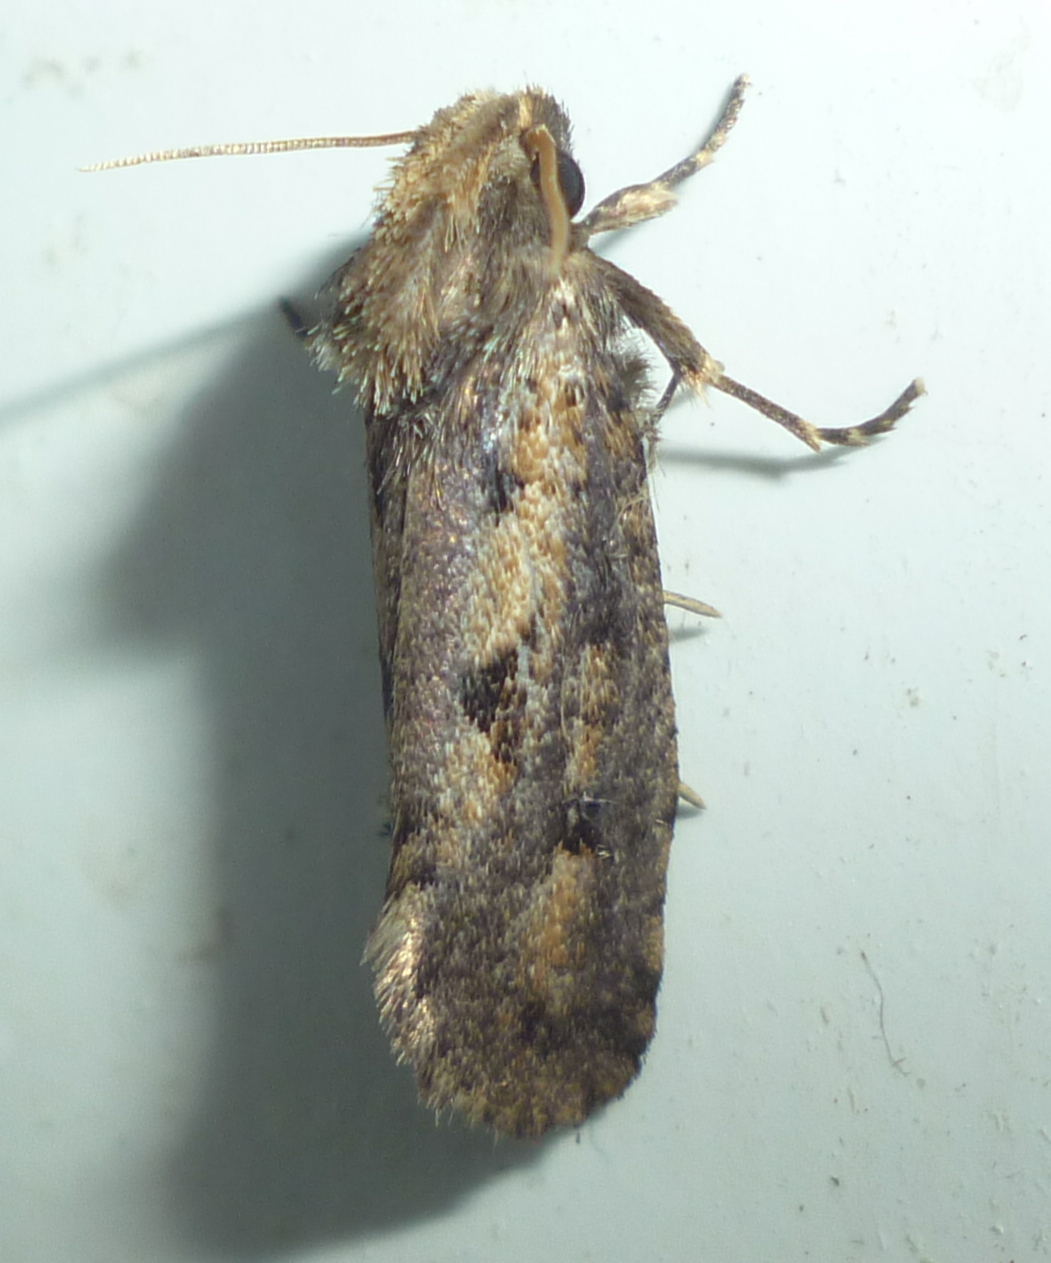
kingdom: Animalia
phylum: Arthropoda
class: Insecta
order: Lepidoptera
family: Tineidae
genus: Acrolophus
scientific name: Acrolophus popeanella
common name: Clemens' grass tubeworm moth
